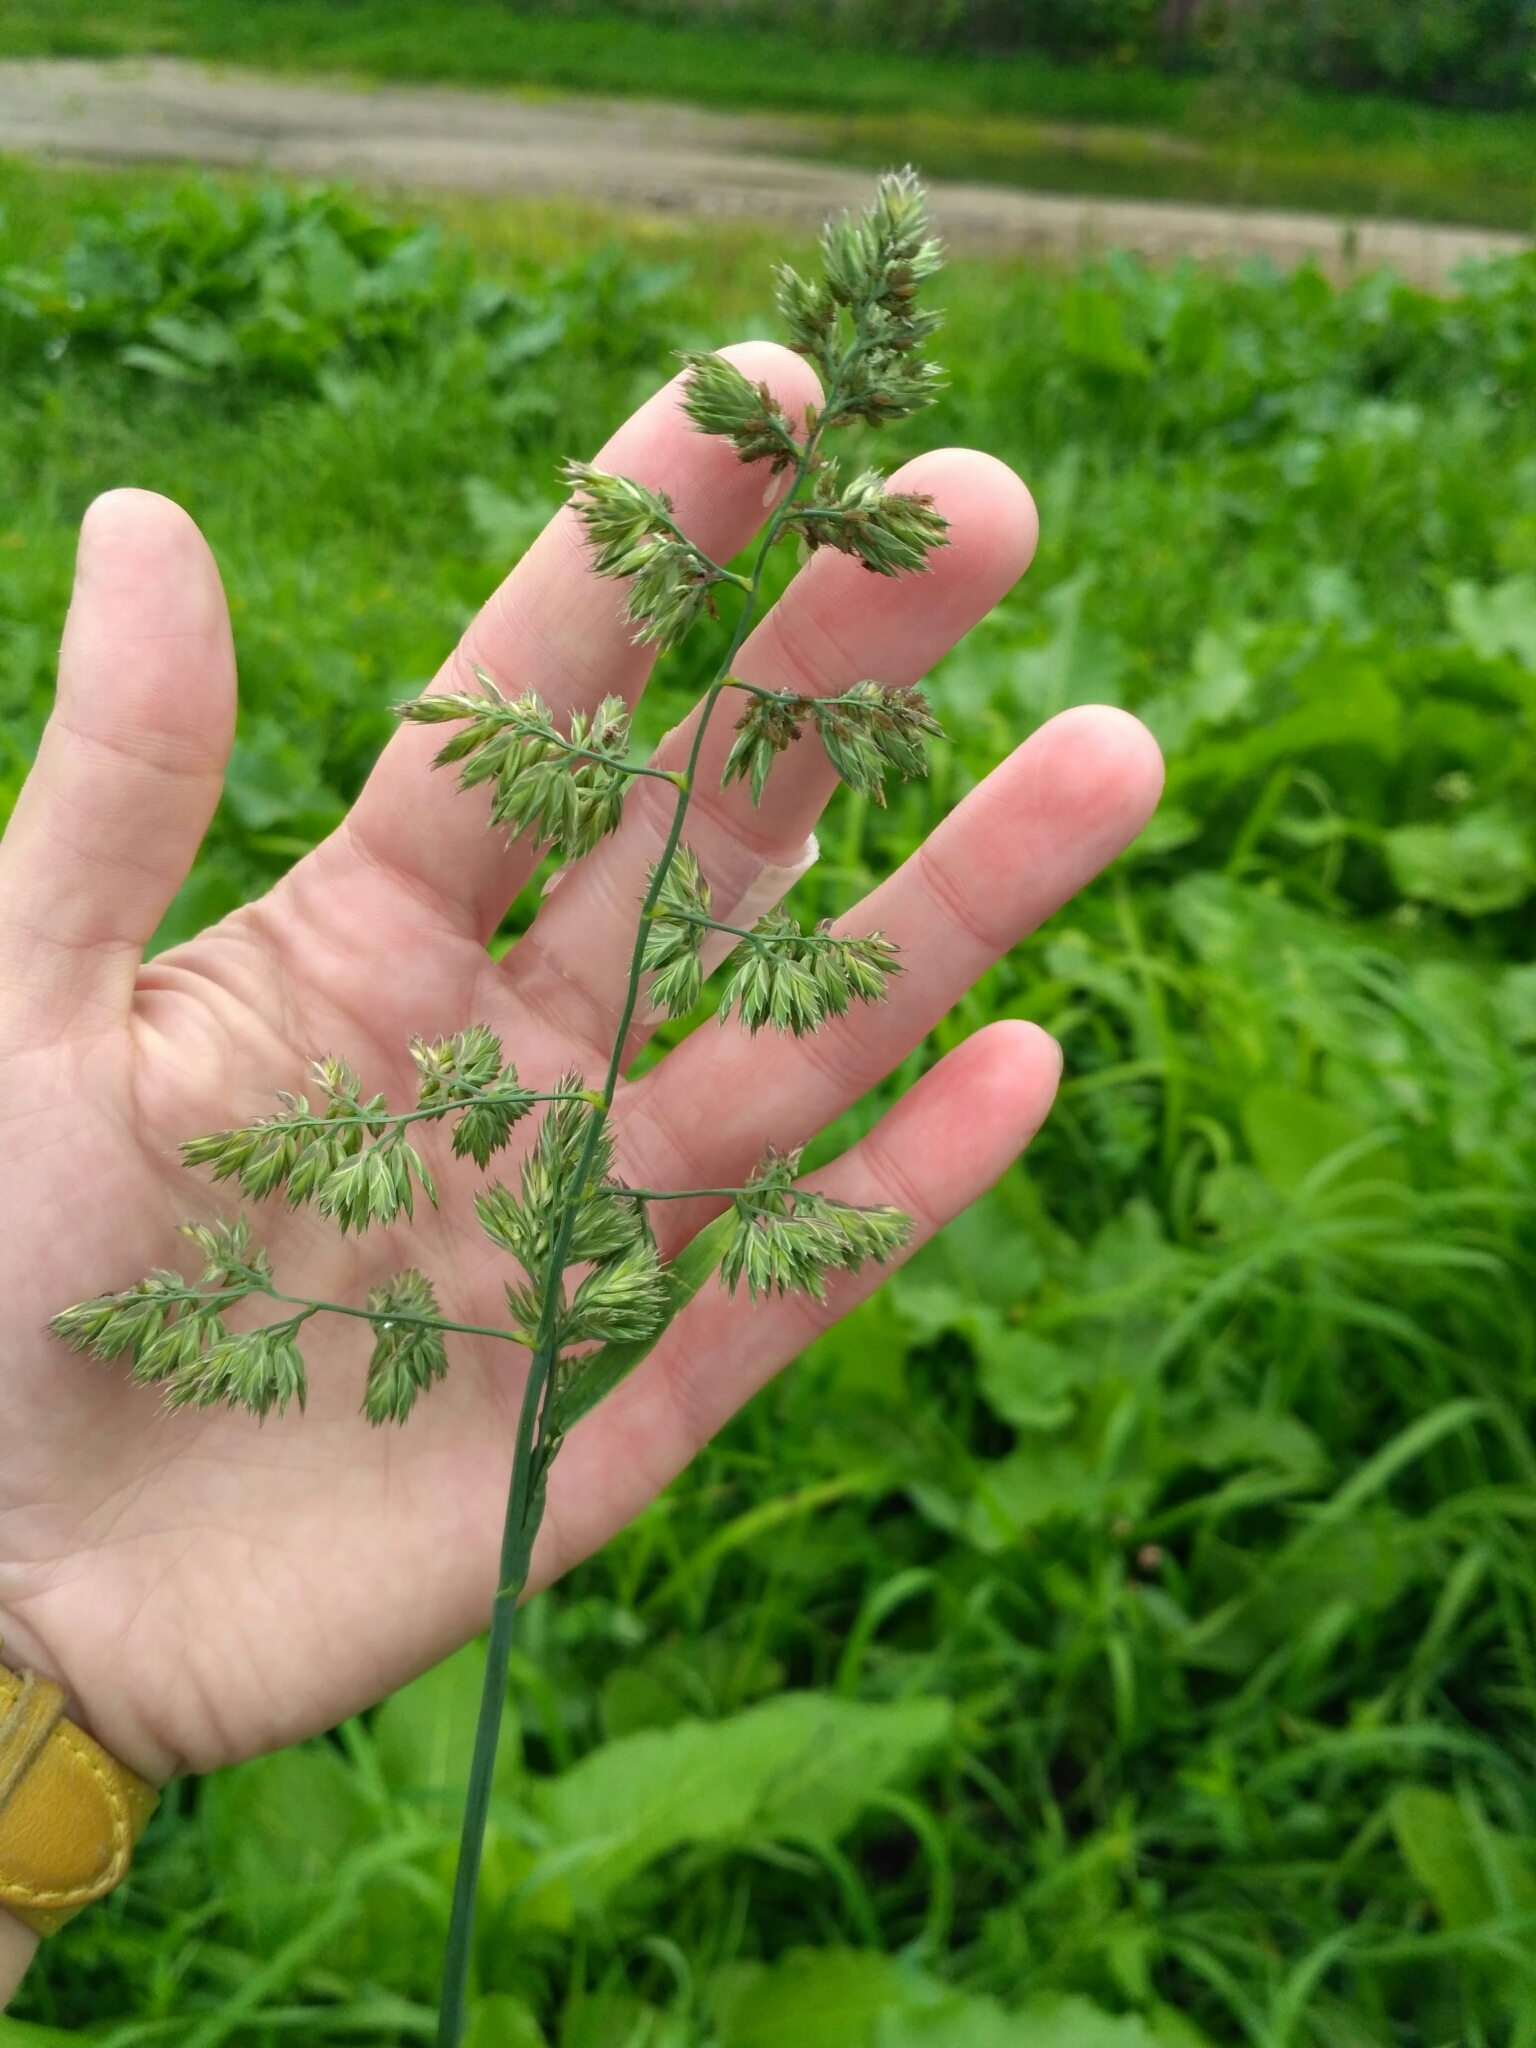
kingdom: Plantae
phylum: Tracheophyta
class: Liliopsida
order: Poales
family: Poaceae
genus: Dactylis
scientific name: Dactylis glomerata
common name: Orchardgrass
